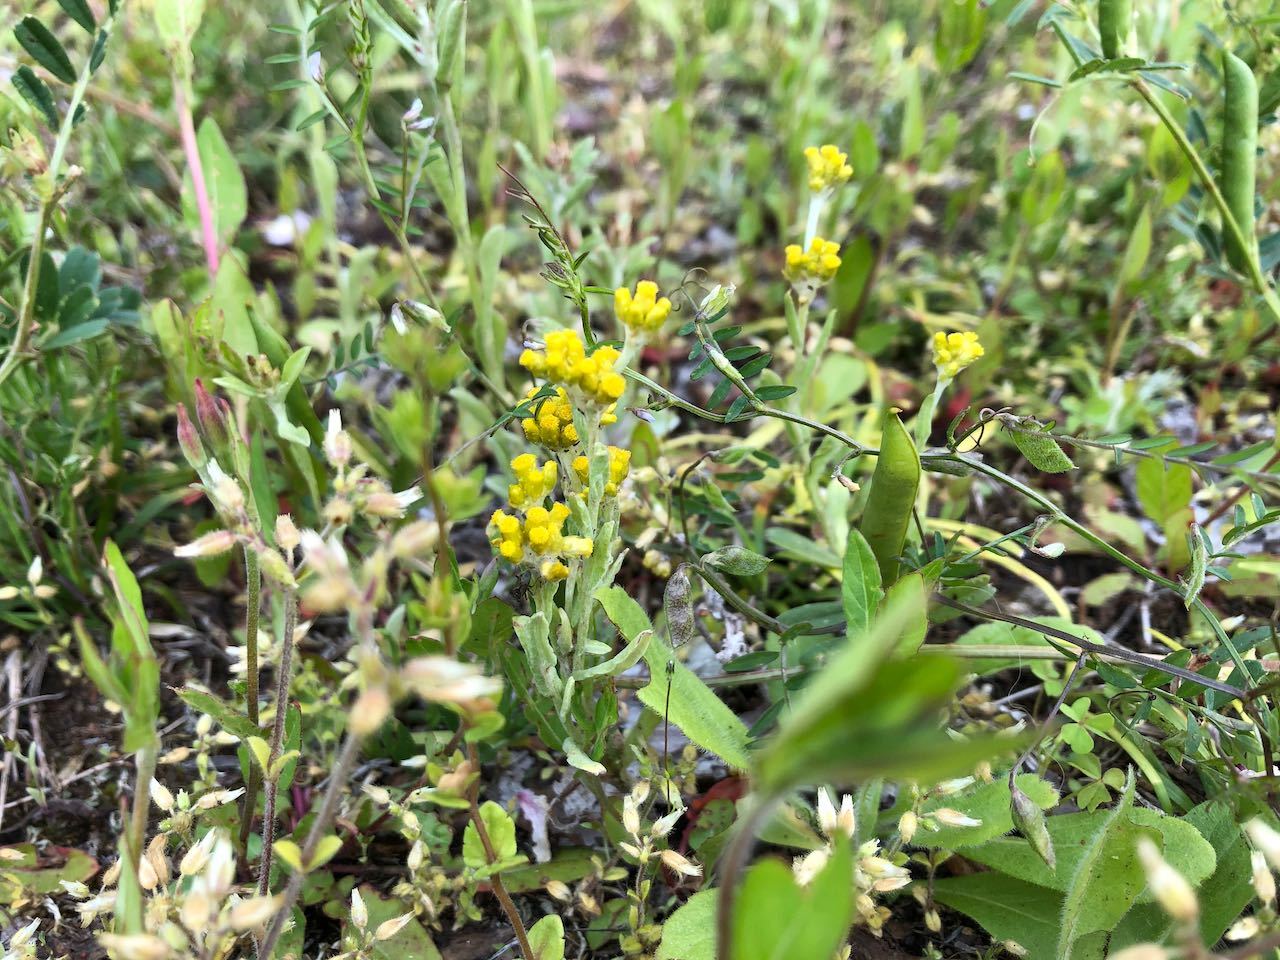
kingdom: Plantae
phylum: Tracheophyta
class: Magnoliopsida
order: Asterales
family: Asteraceae
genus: Pseudognaphalium
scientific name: Pseudognaphalium affine
